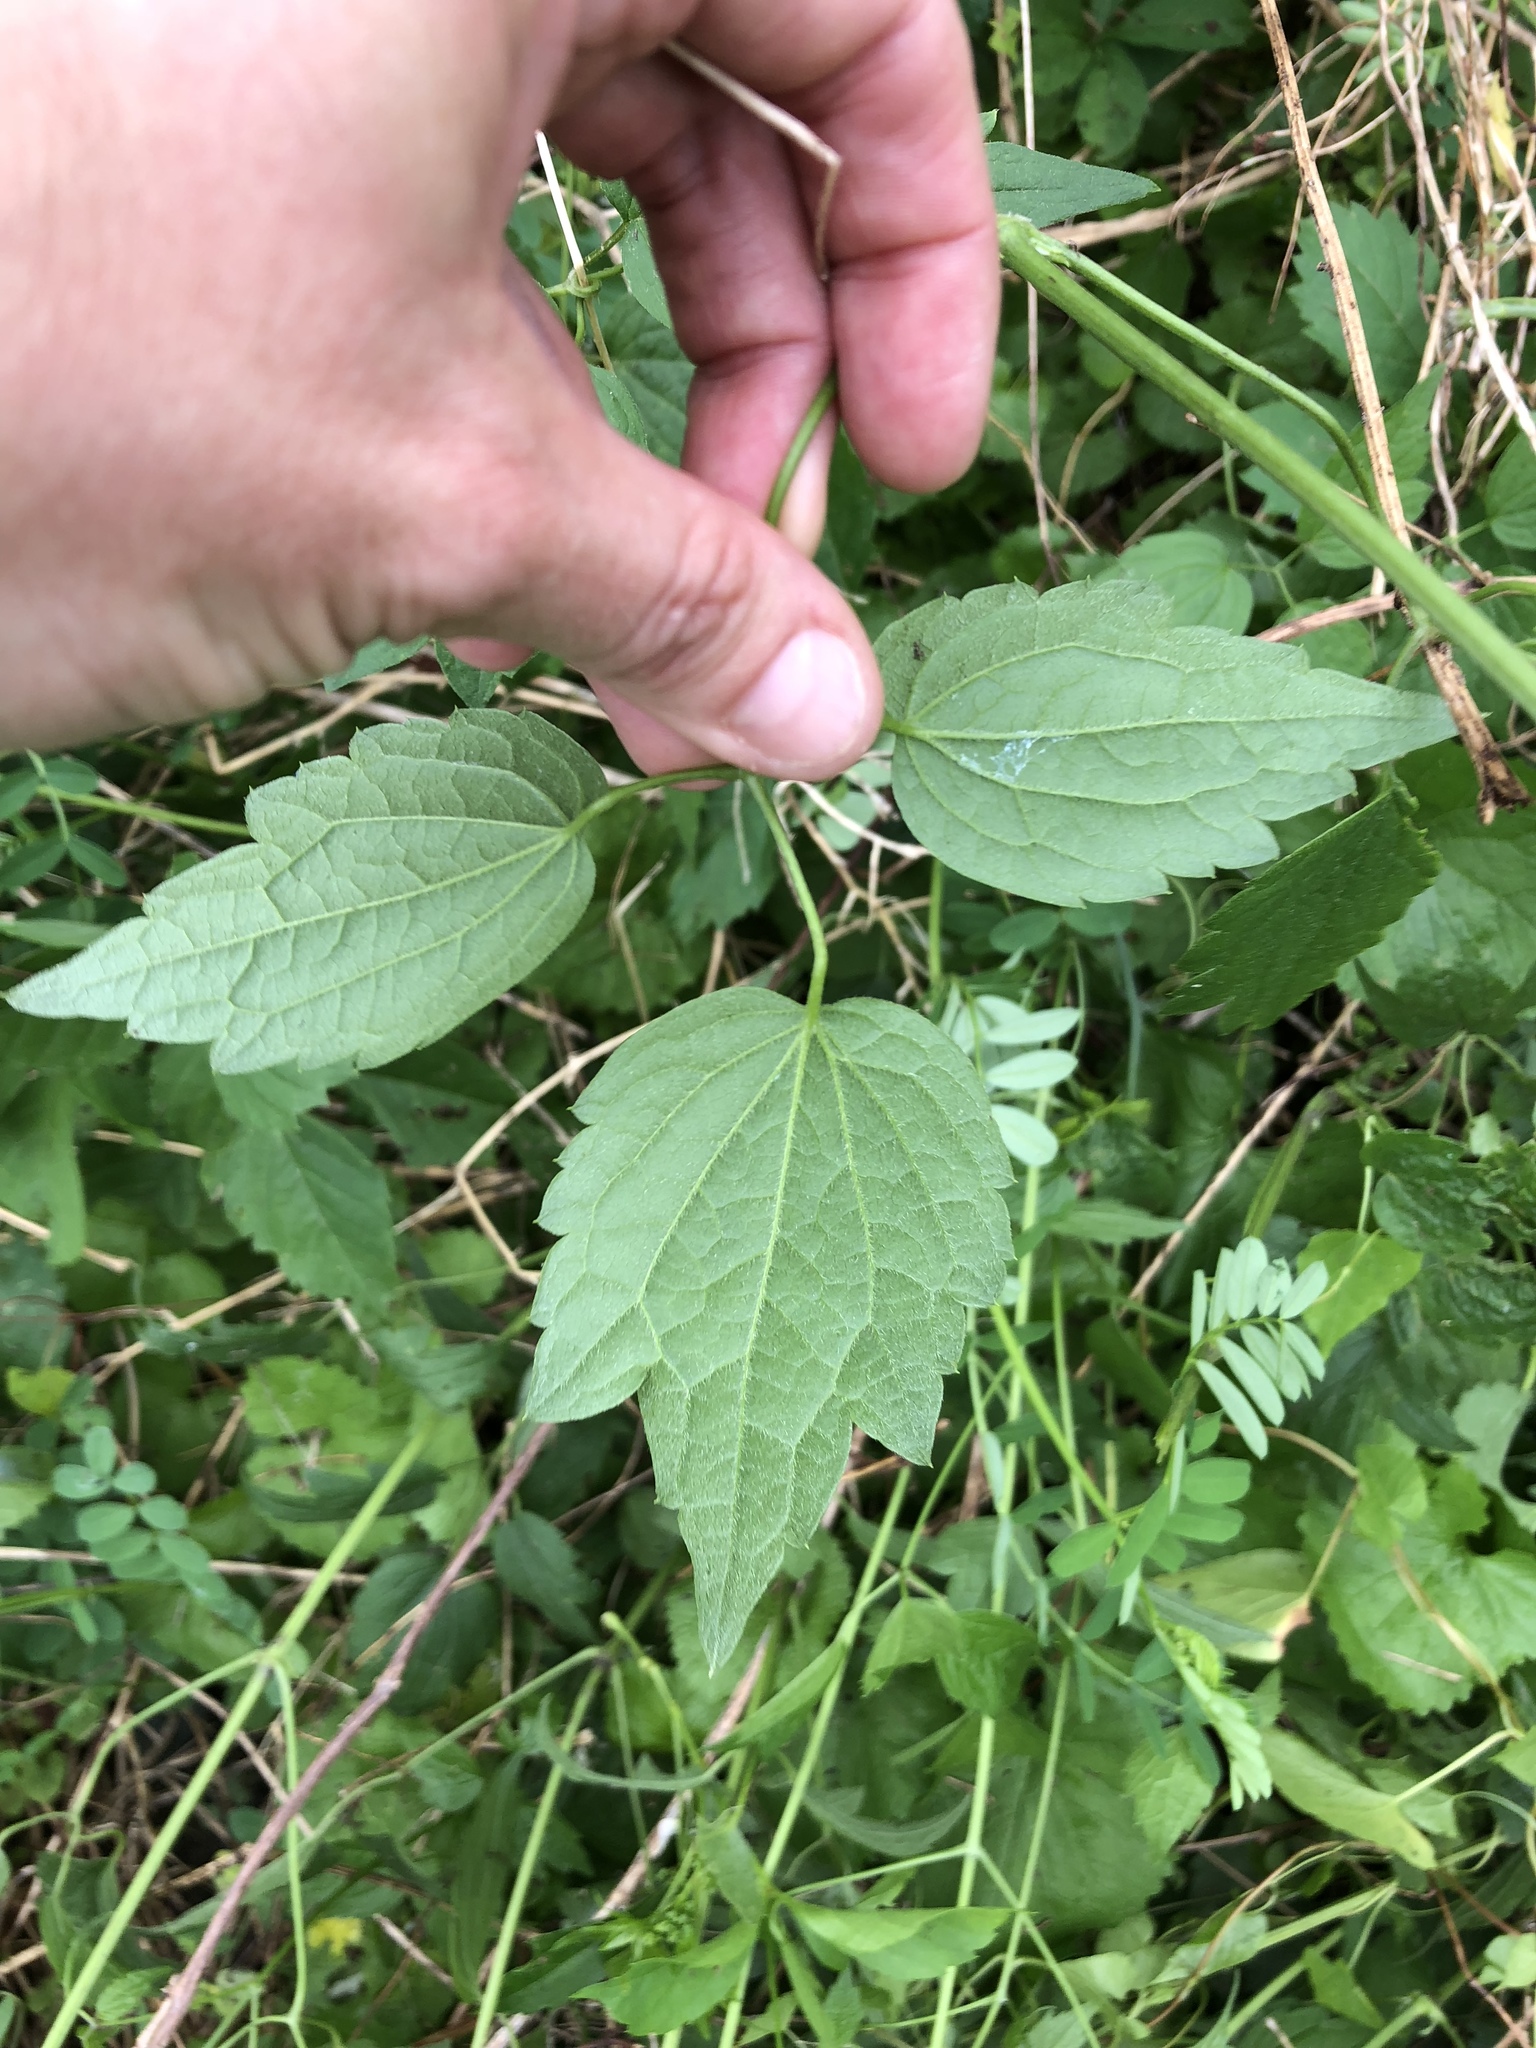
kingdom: Plantae
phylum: Tracheophyta
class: Magnoliopsida
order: Ranunculales
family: Ranunculaceae
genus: Clematis
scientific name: Clematis virginiana
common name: Virgin's-bower
